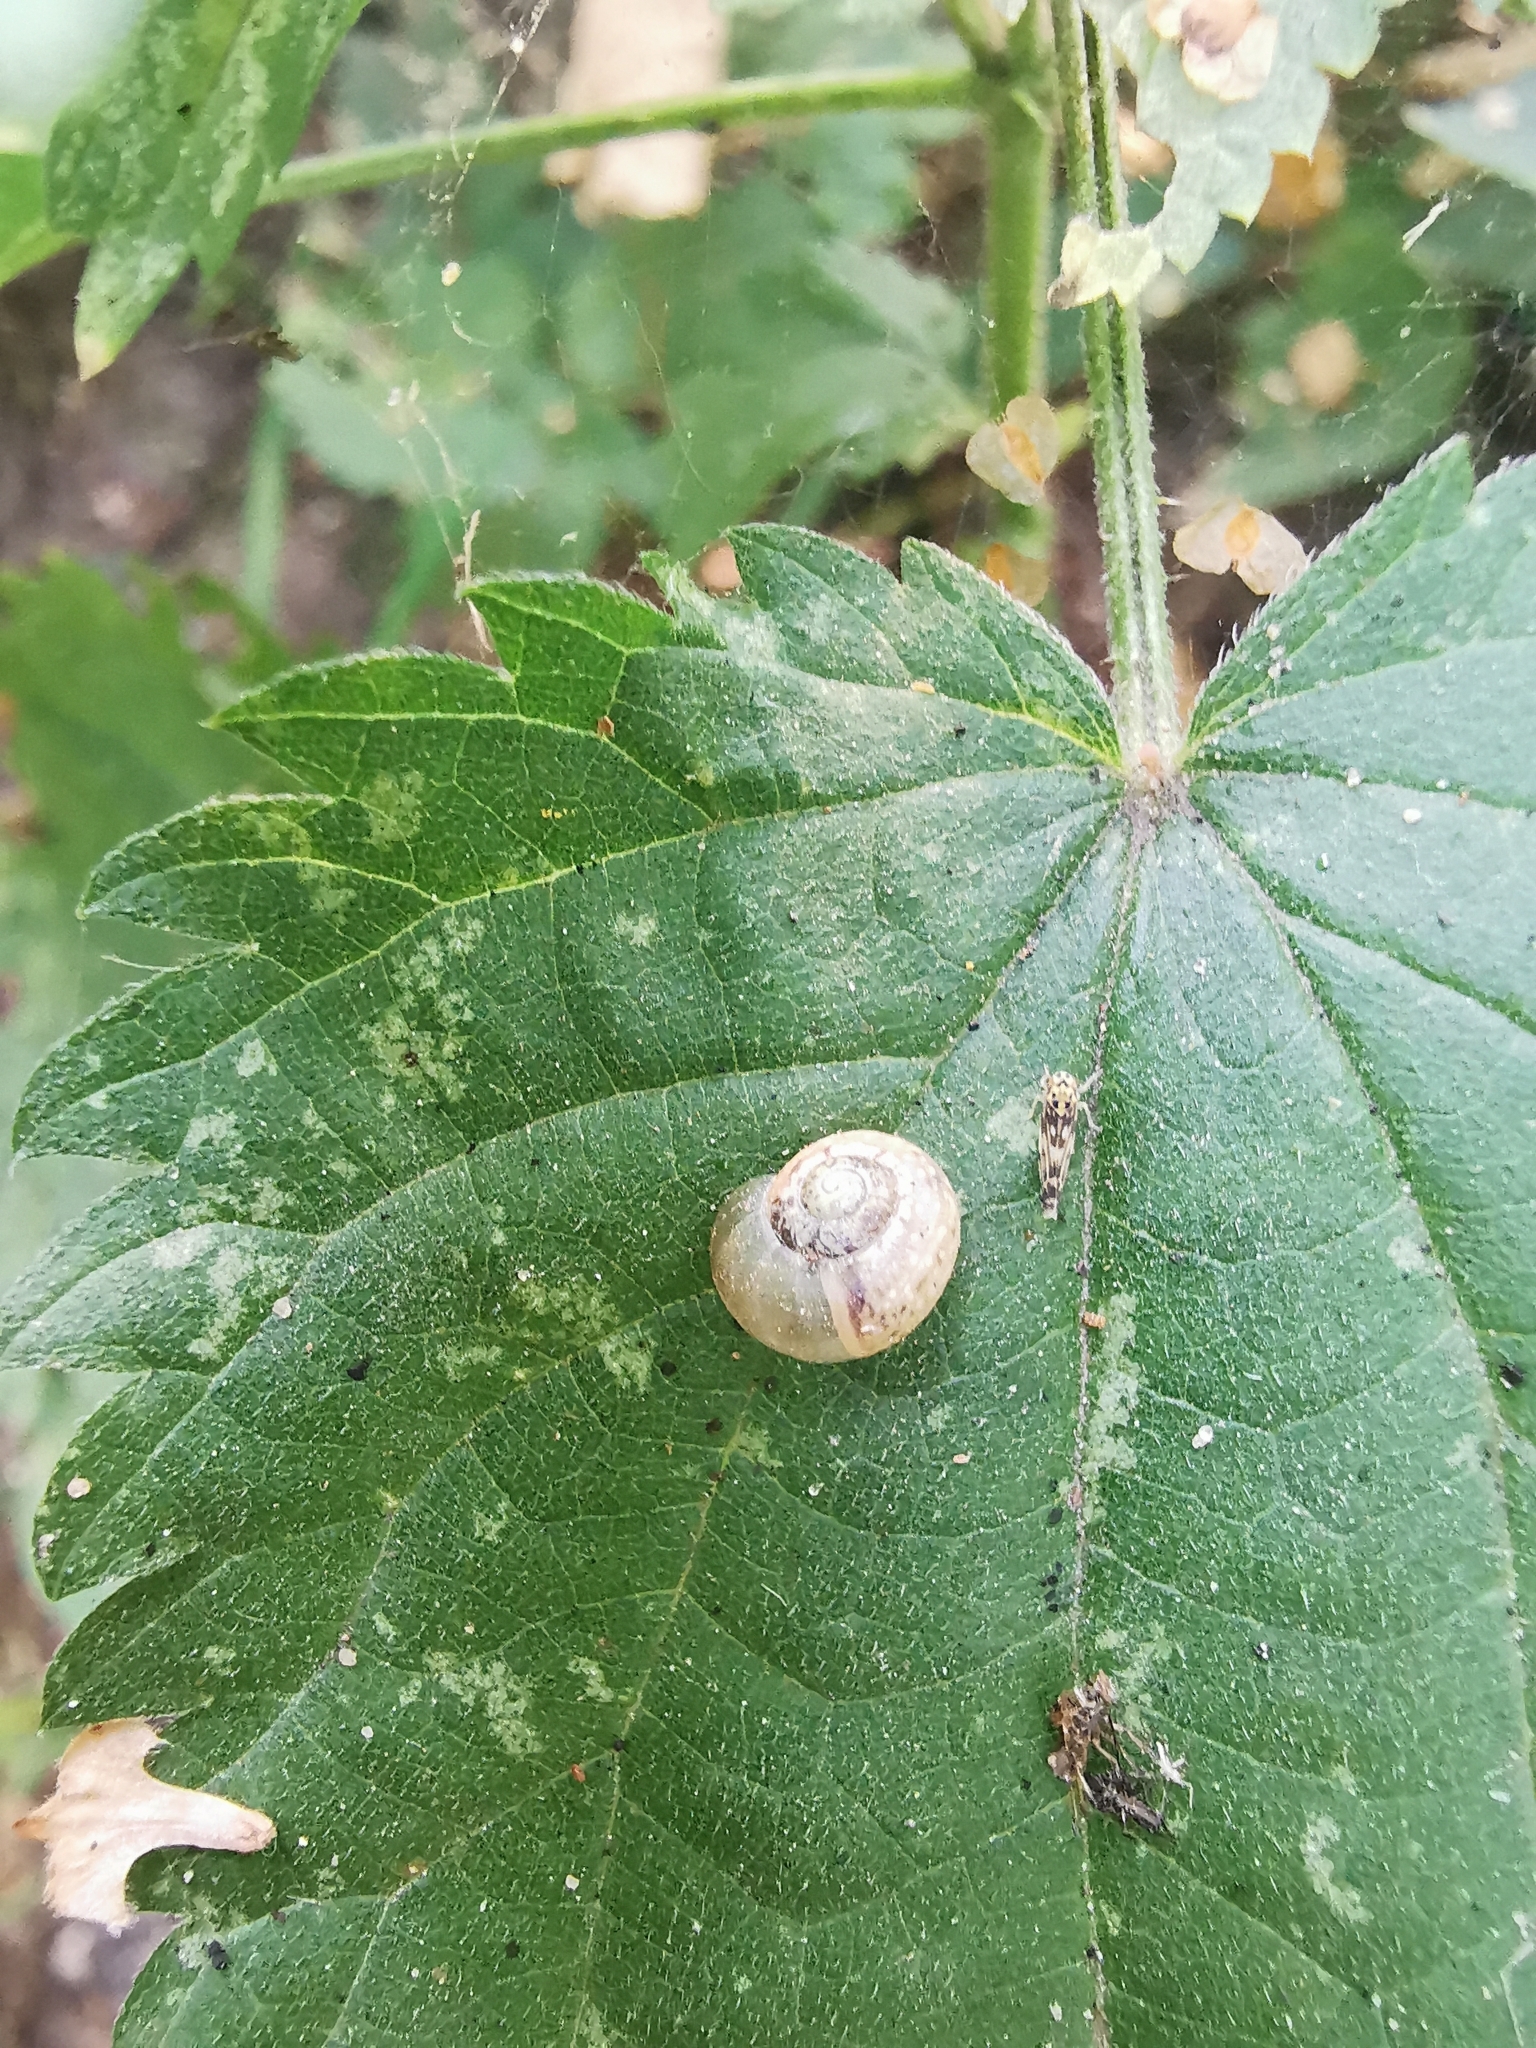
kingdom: Animalia
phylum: Mollusca
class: Gastropoda
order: Stylommatophora
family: Camaenidae
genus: Fruticicola
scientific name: Fruticicola fruticum
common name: Bush snail
